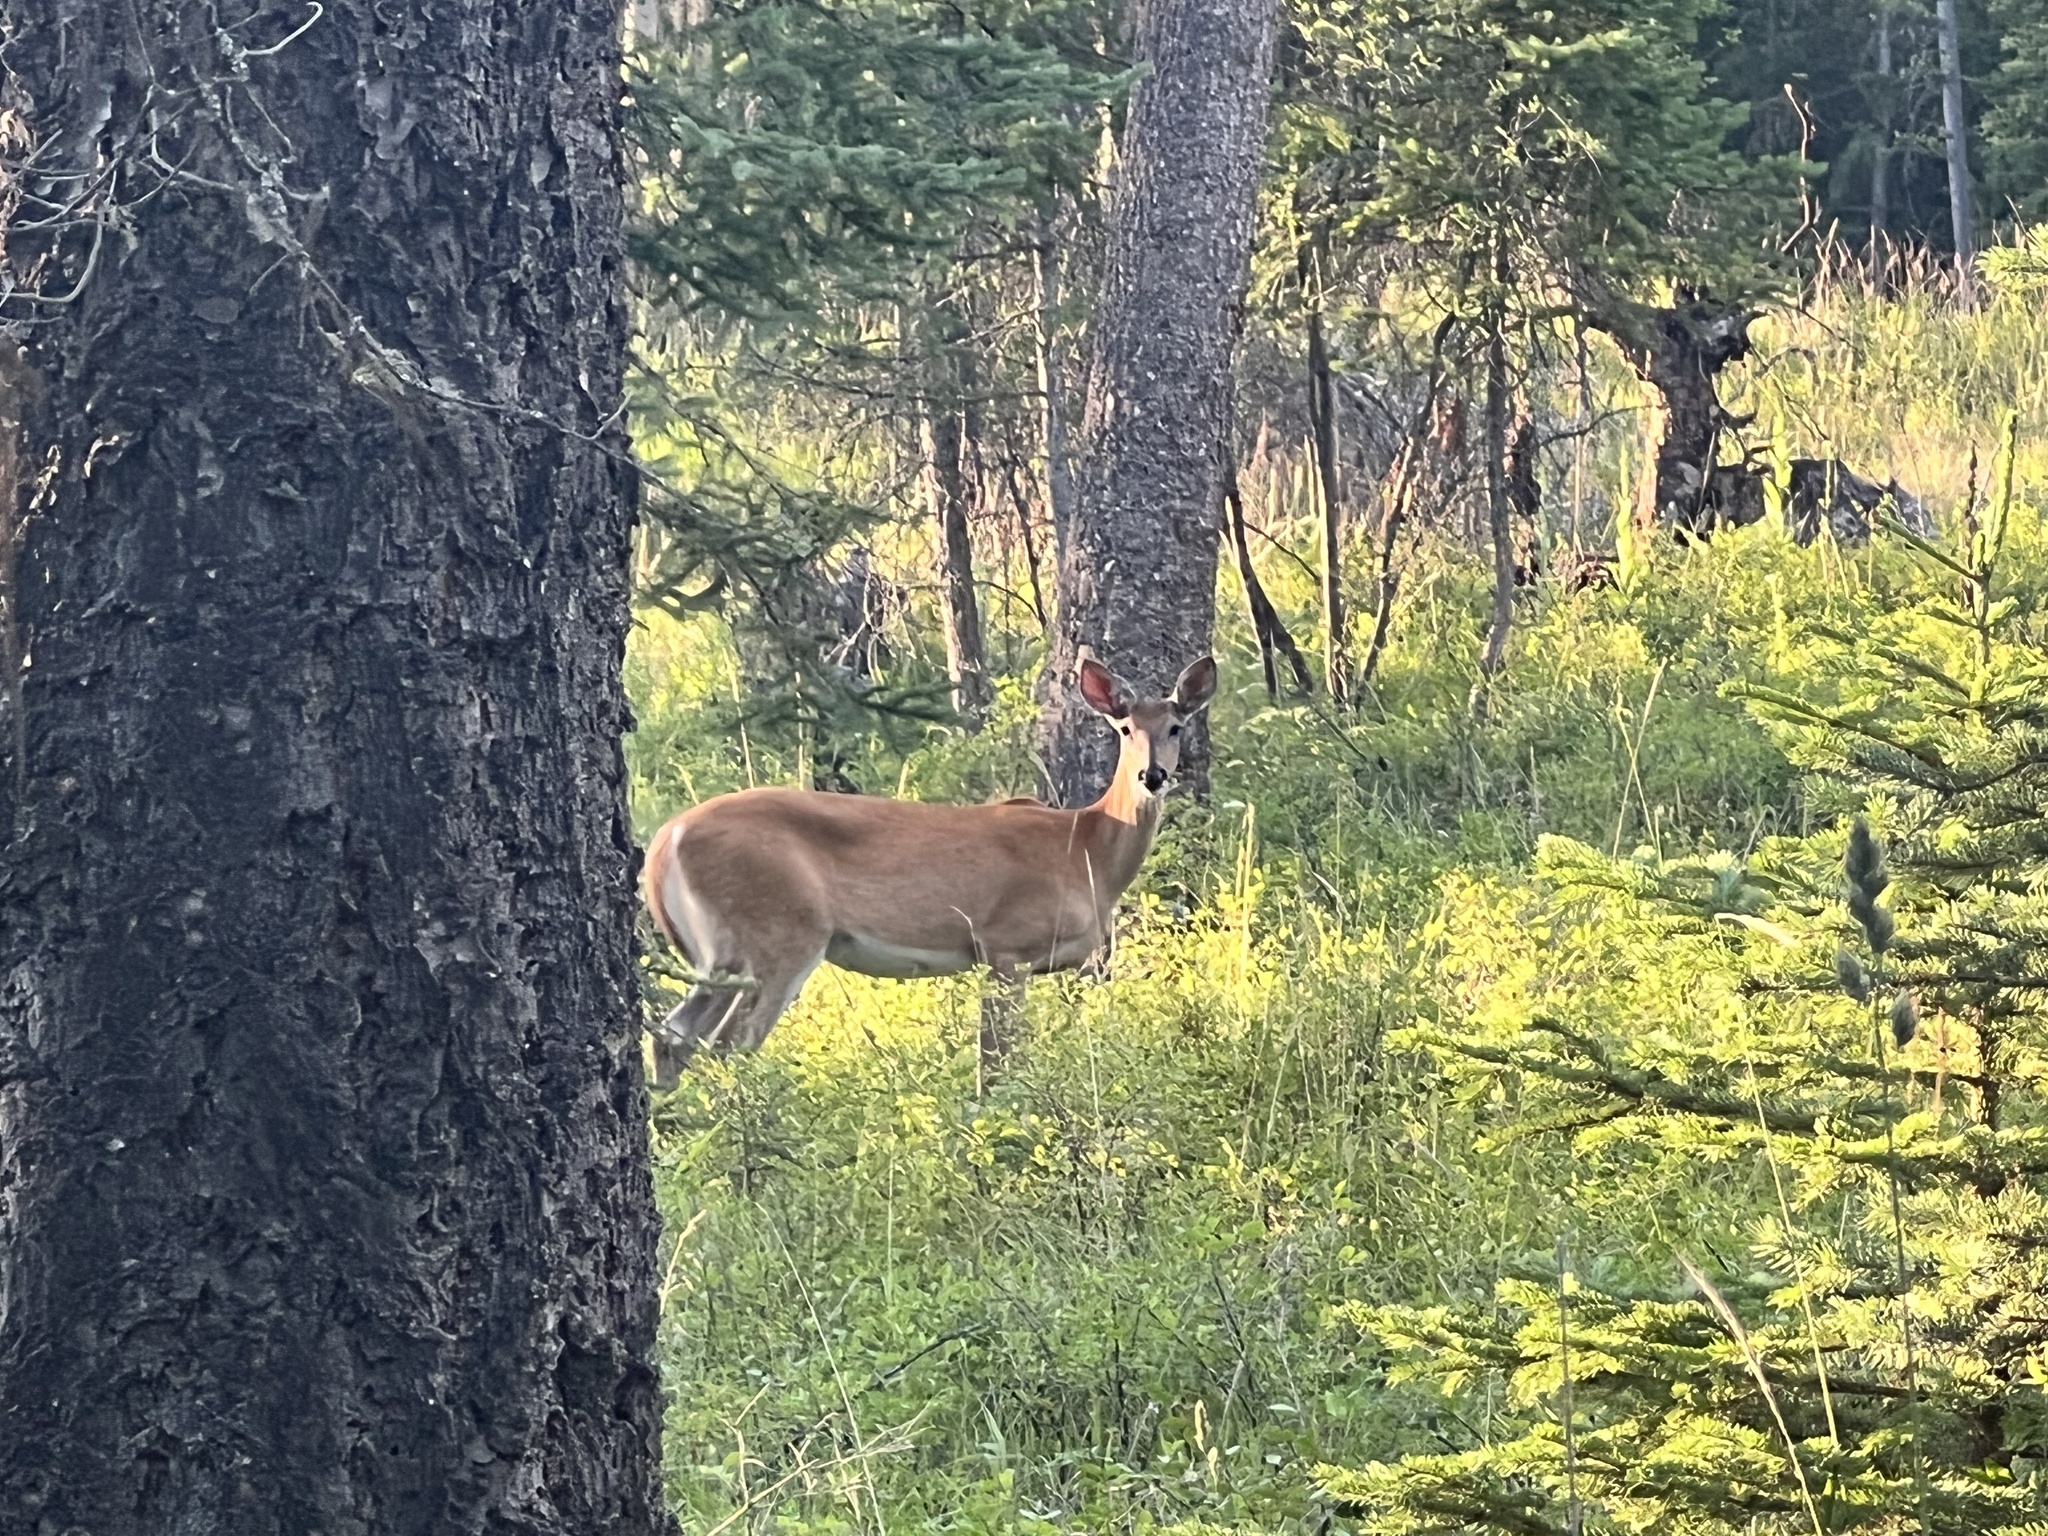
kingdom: Animalia
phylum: Chordata
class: Mammalia
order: Artiodactyla
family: Cervidae
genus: Odocoileus
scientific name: Odocoileus virginianus
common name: White-tailed deer
